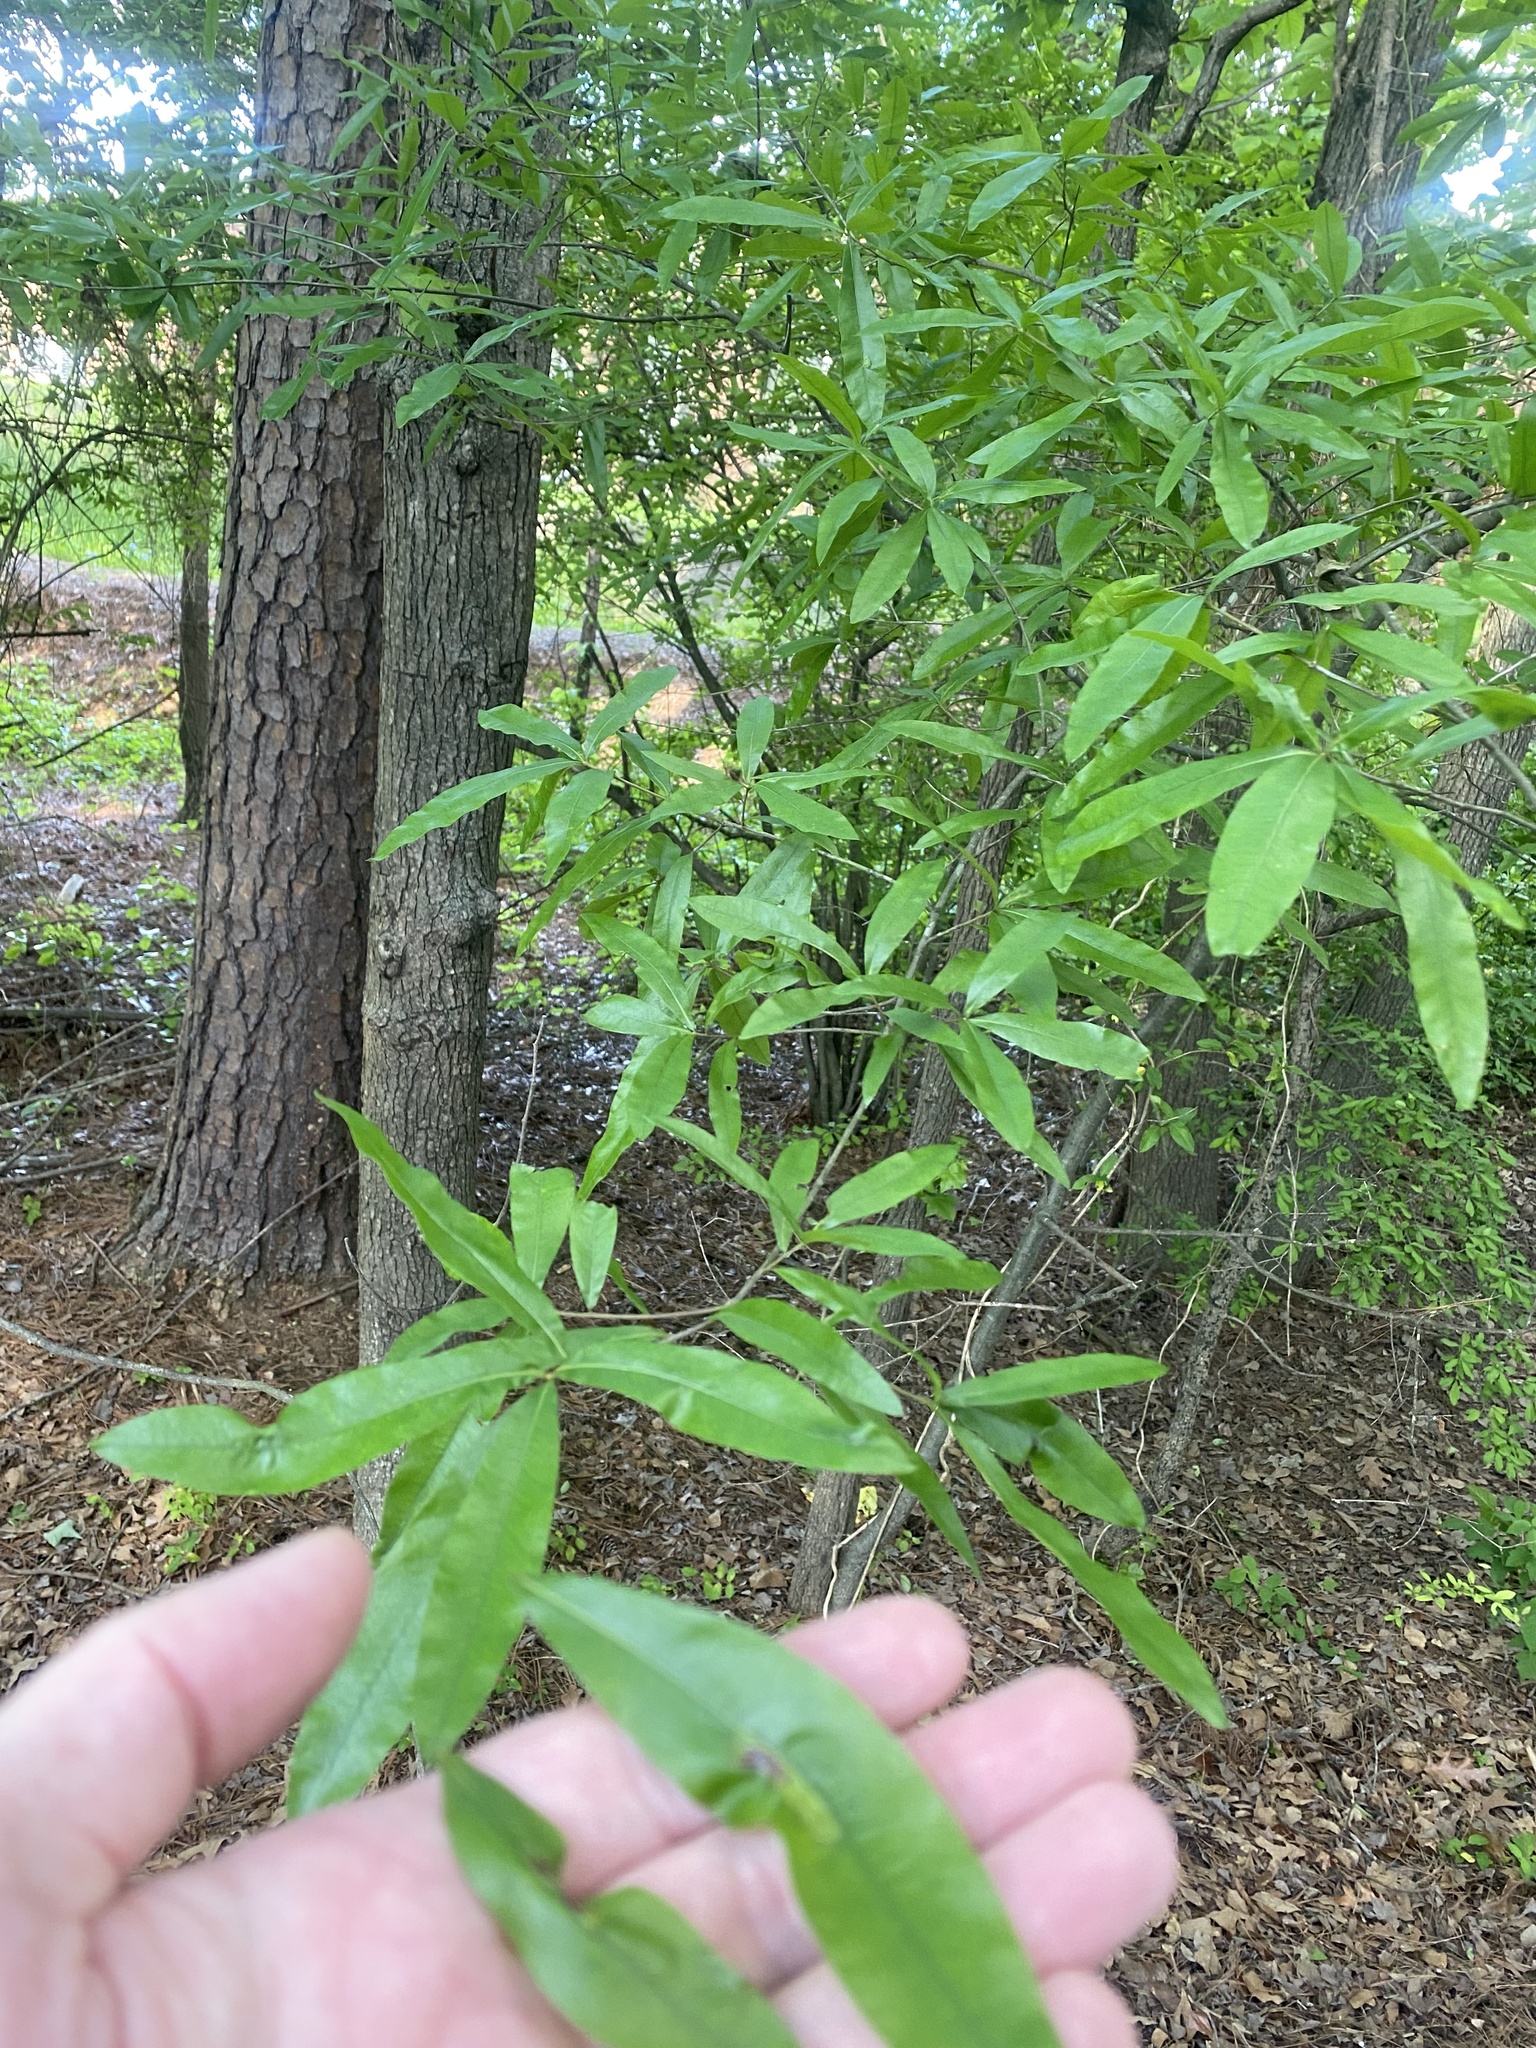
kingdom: Plantae
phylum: Tracheophyta
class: Magnoliopsida
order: Fagales
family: Fagaceae
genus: Quercus
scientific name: Quercus phellos
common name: Willow oak
